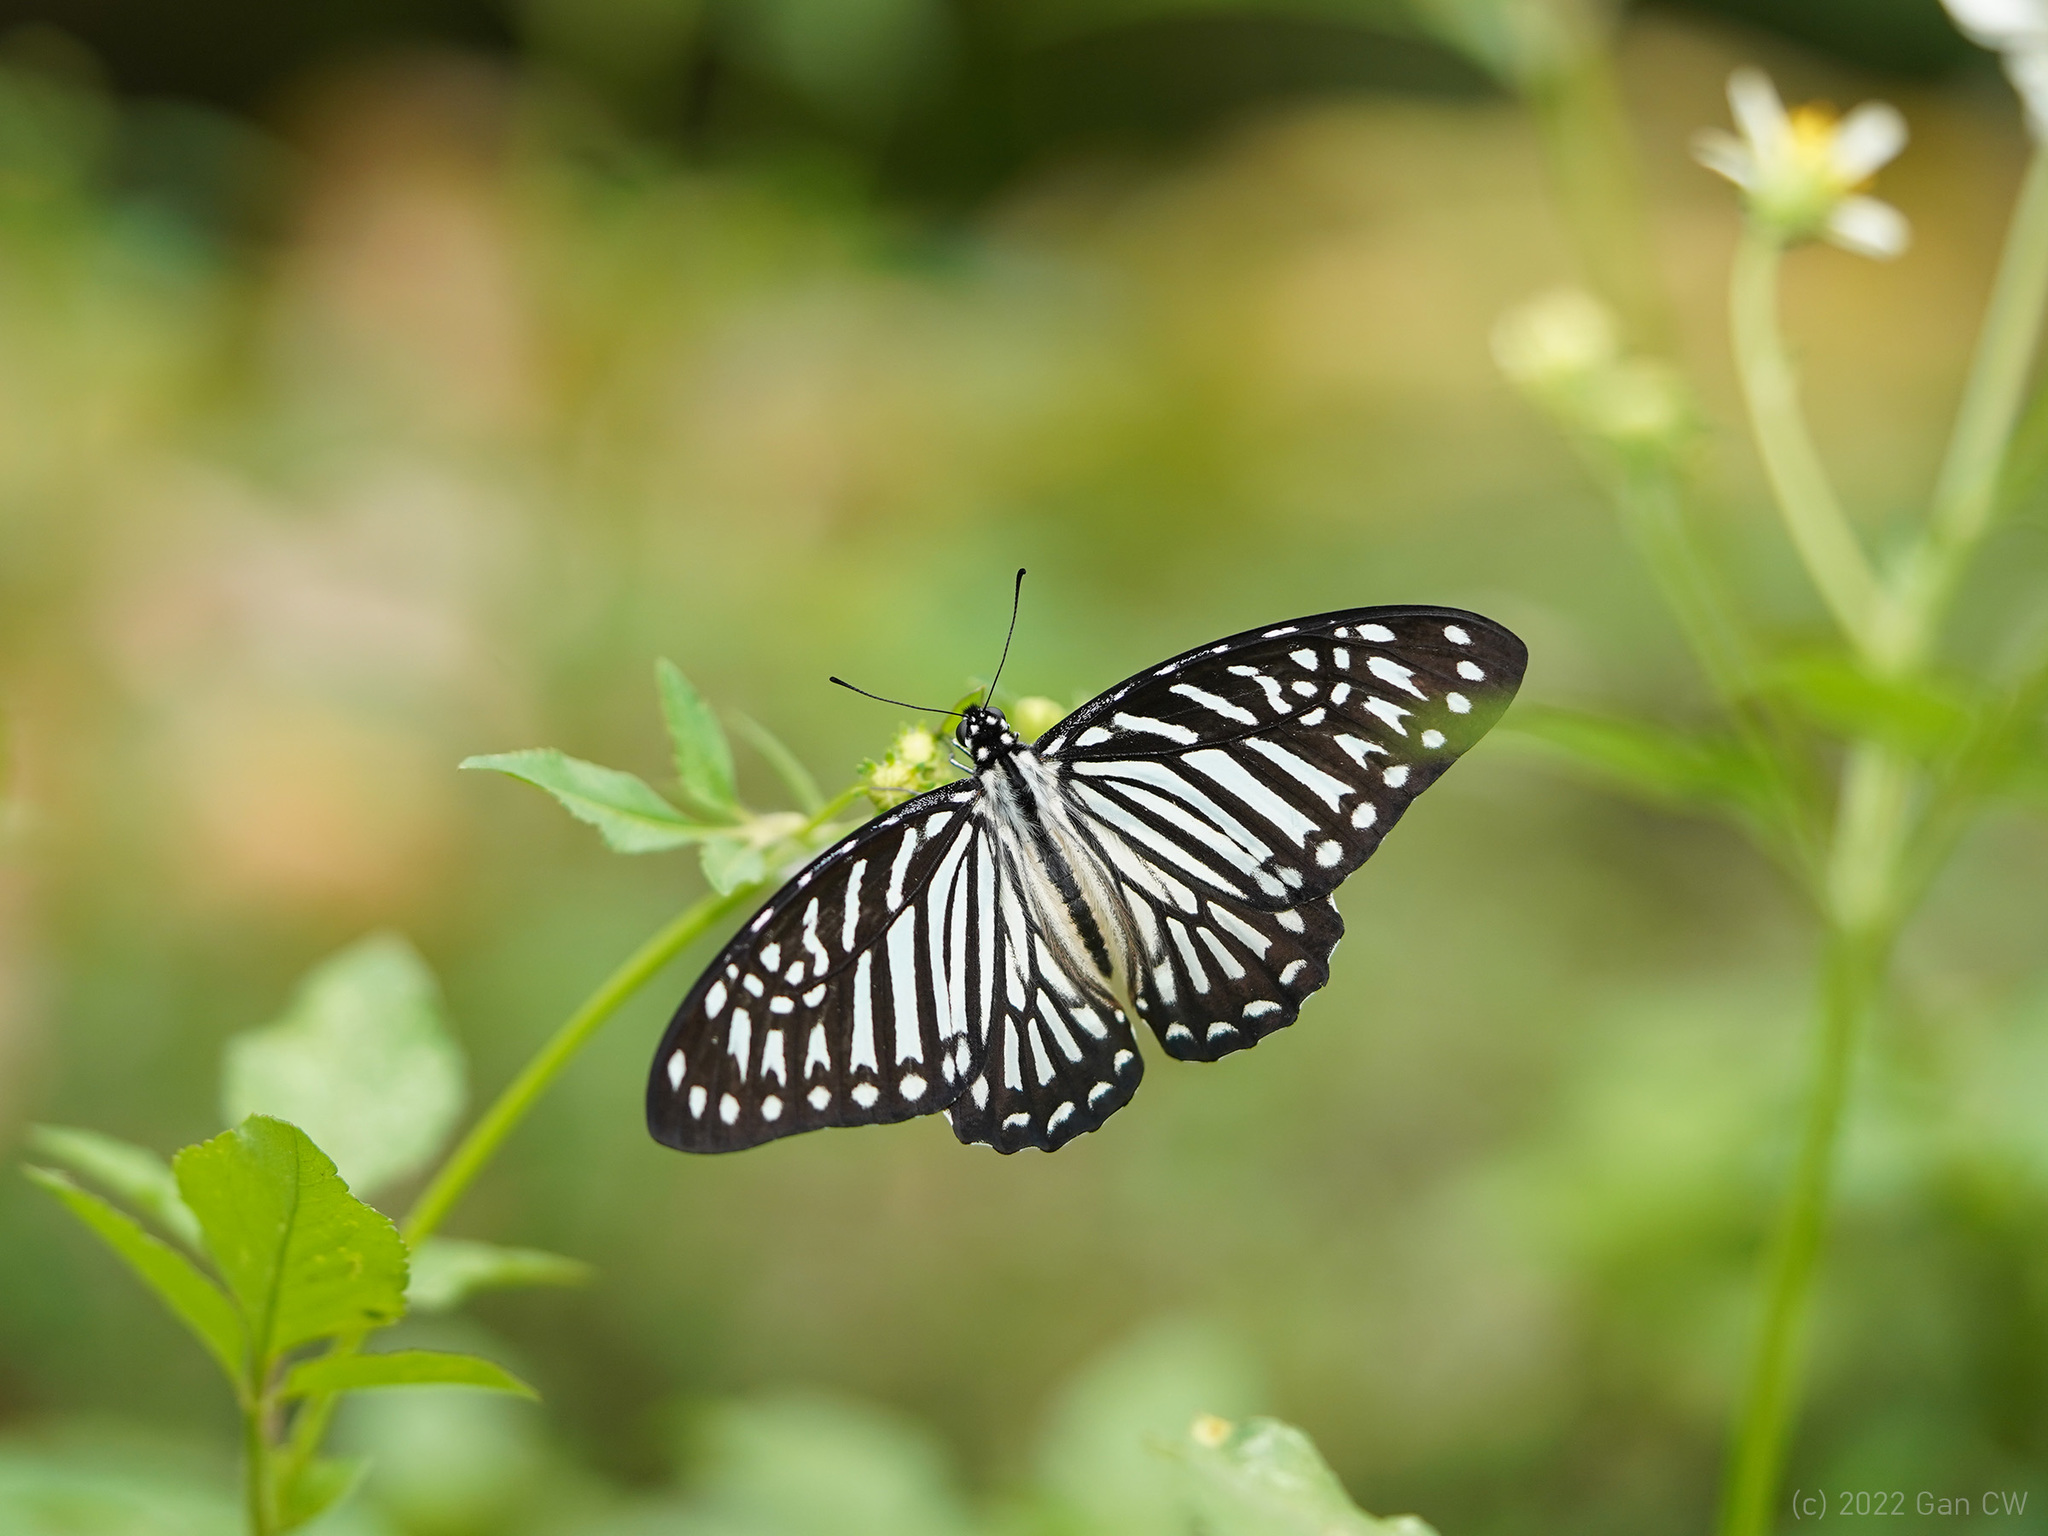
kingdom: Animalia
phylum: Arthropoda
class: Insecta
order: Lepidoptera
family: Papilionidae
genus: Graphium
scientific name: Graphium macareus
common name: Lesser zebra
